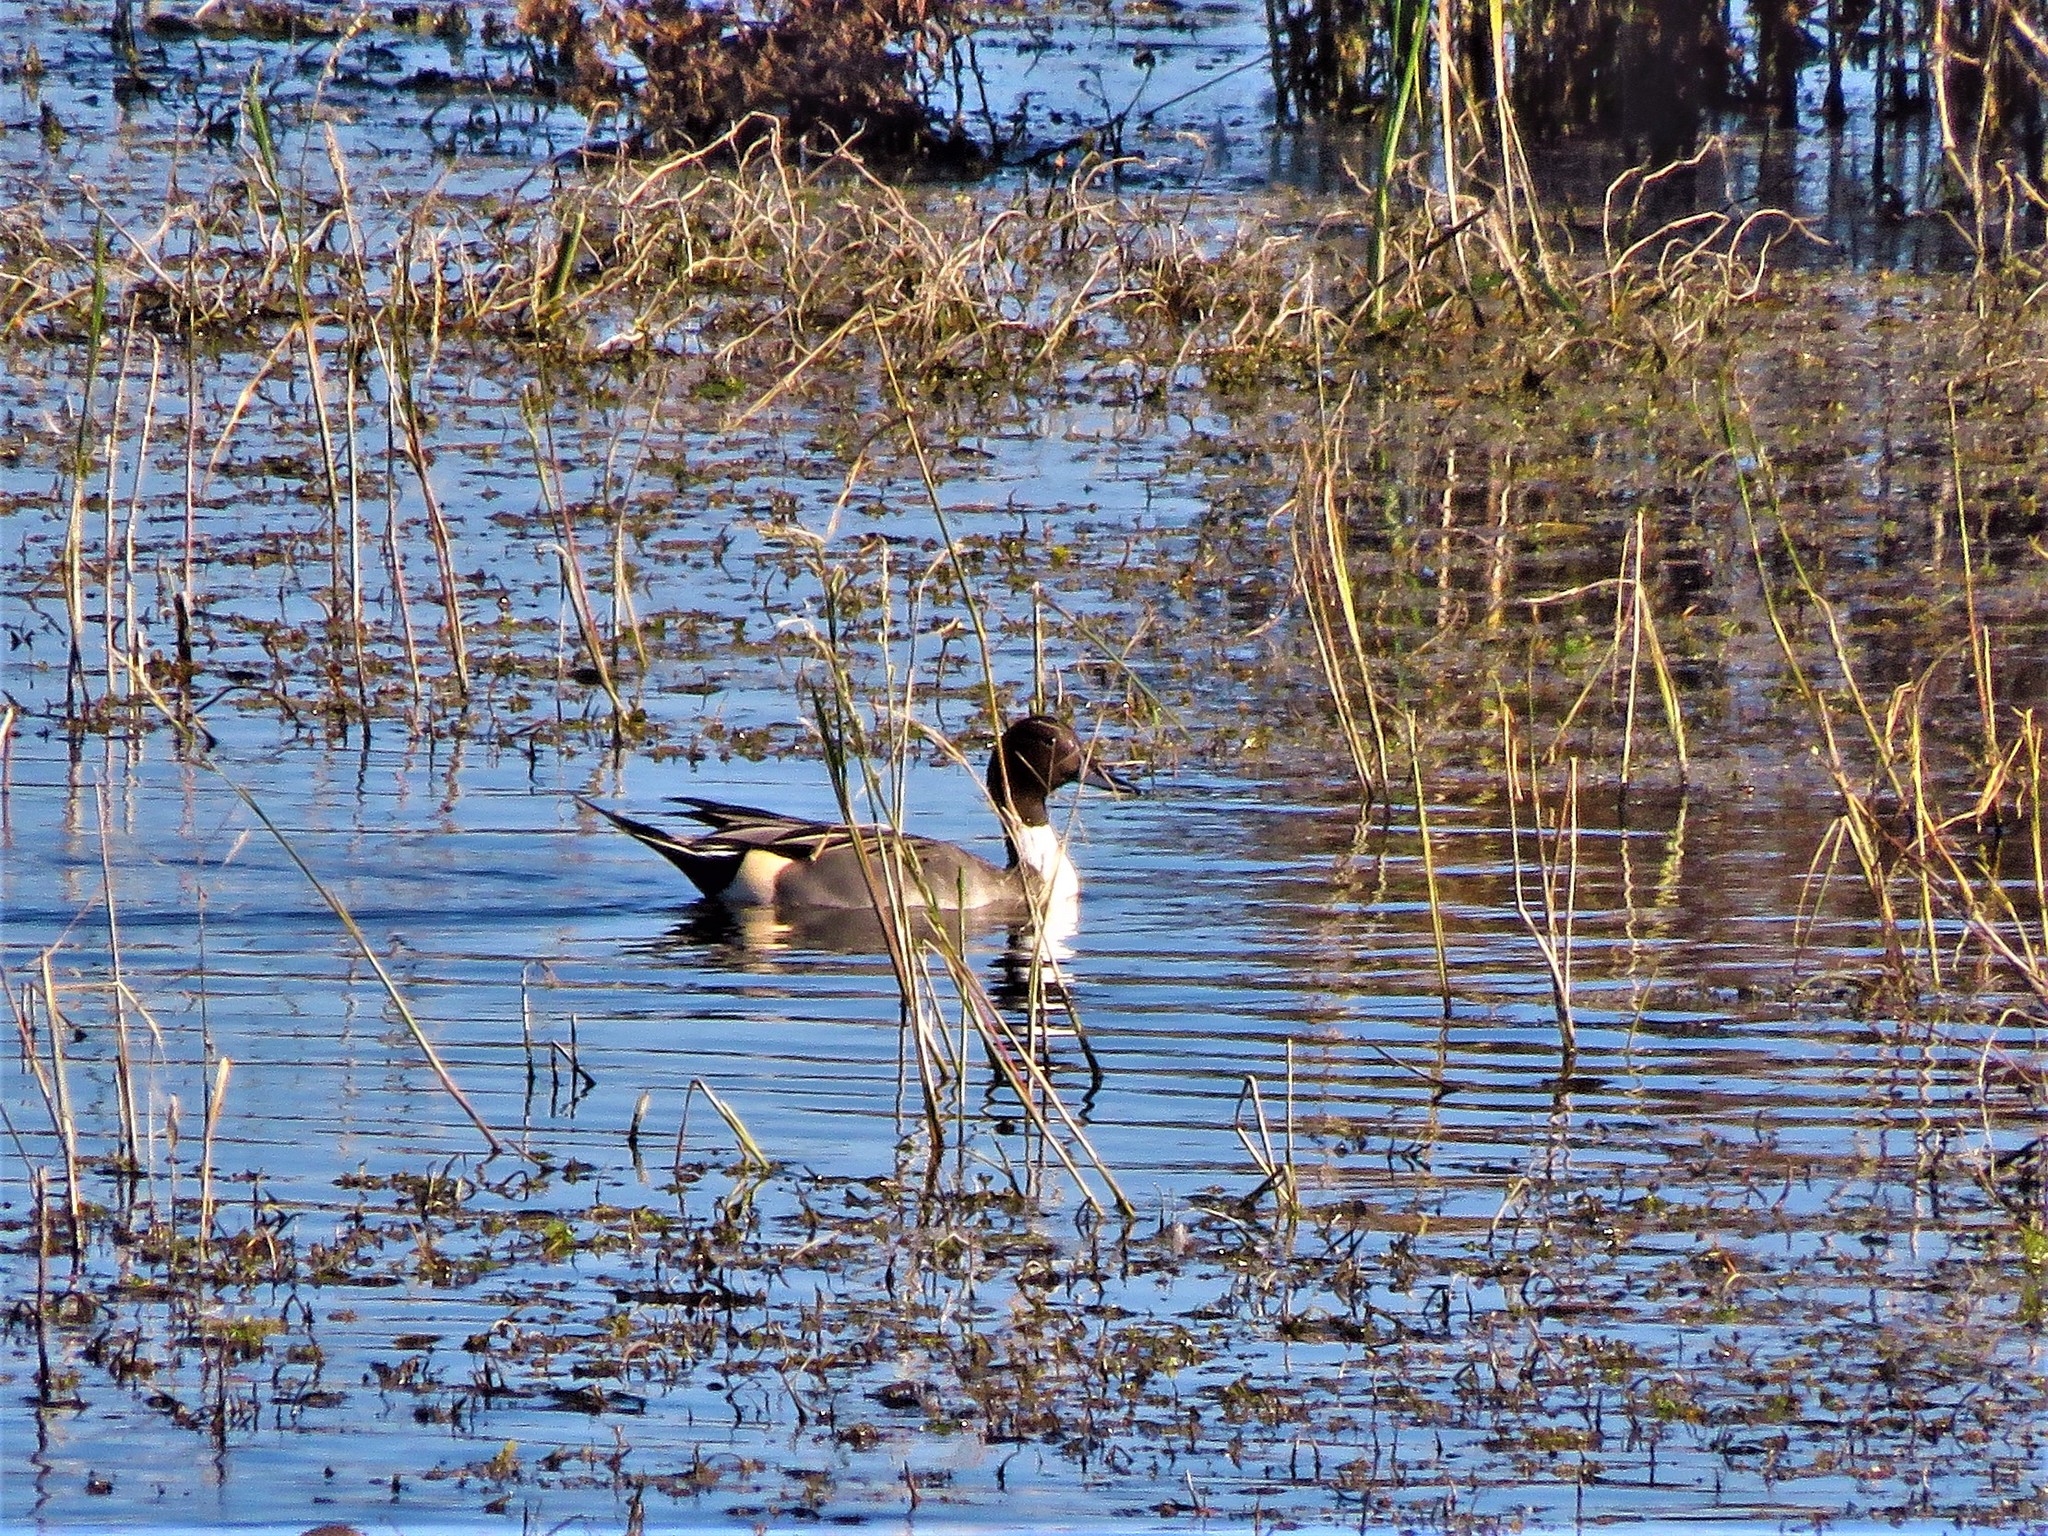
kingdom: Animalia
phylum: Chordata
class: Aves
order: Anseriformes
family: Anatidae
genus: Anas
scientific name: Anas acuta
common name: Northern pintail
